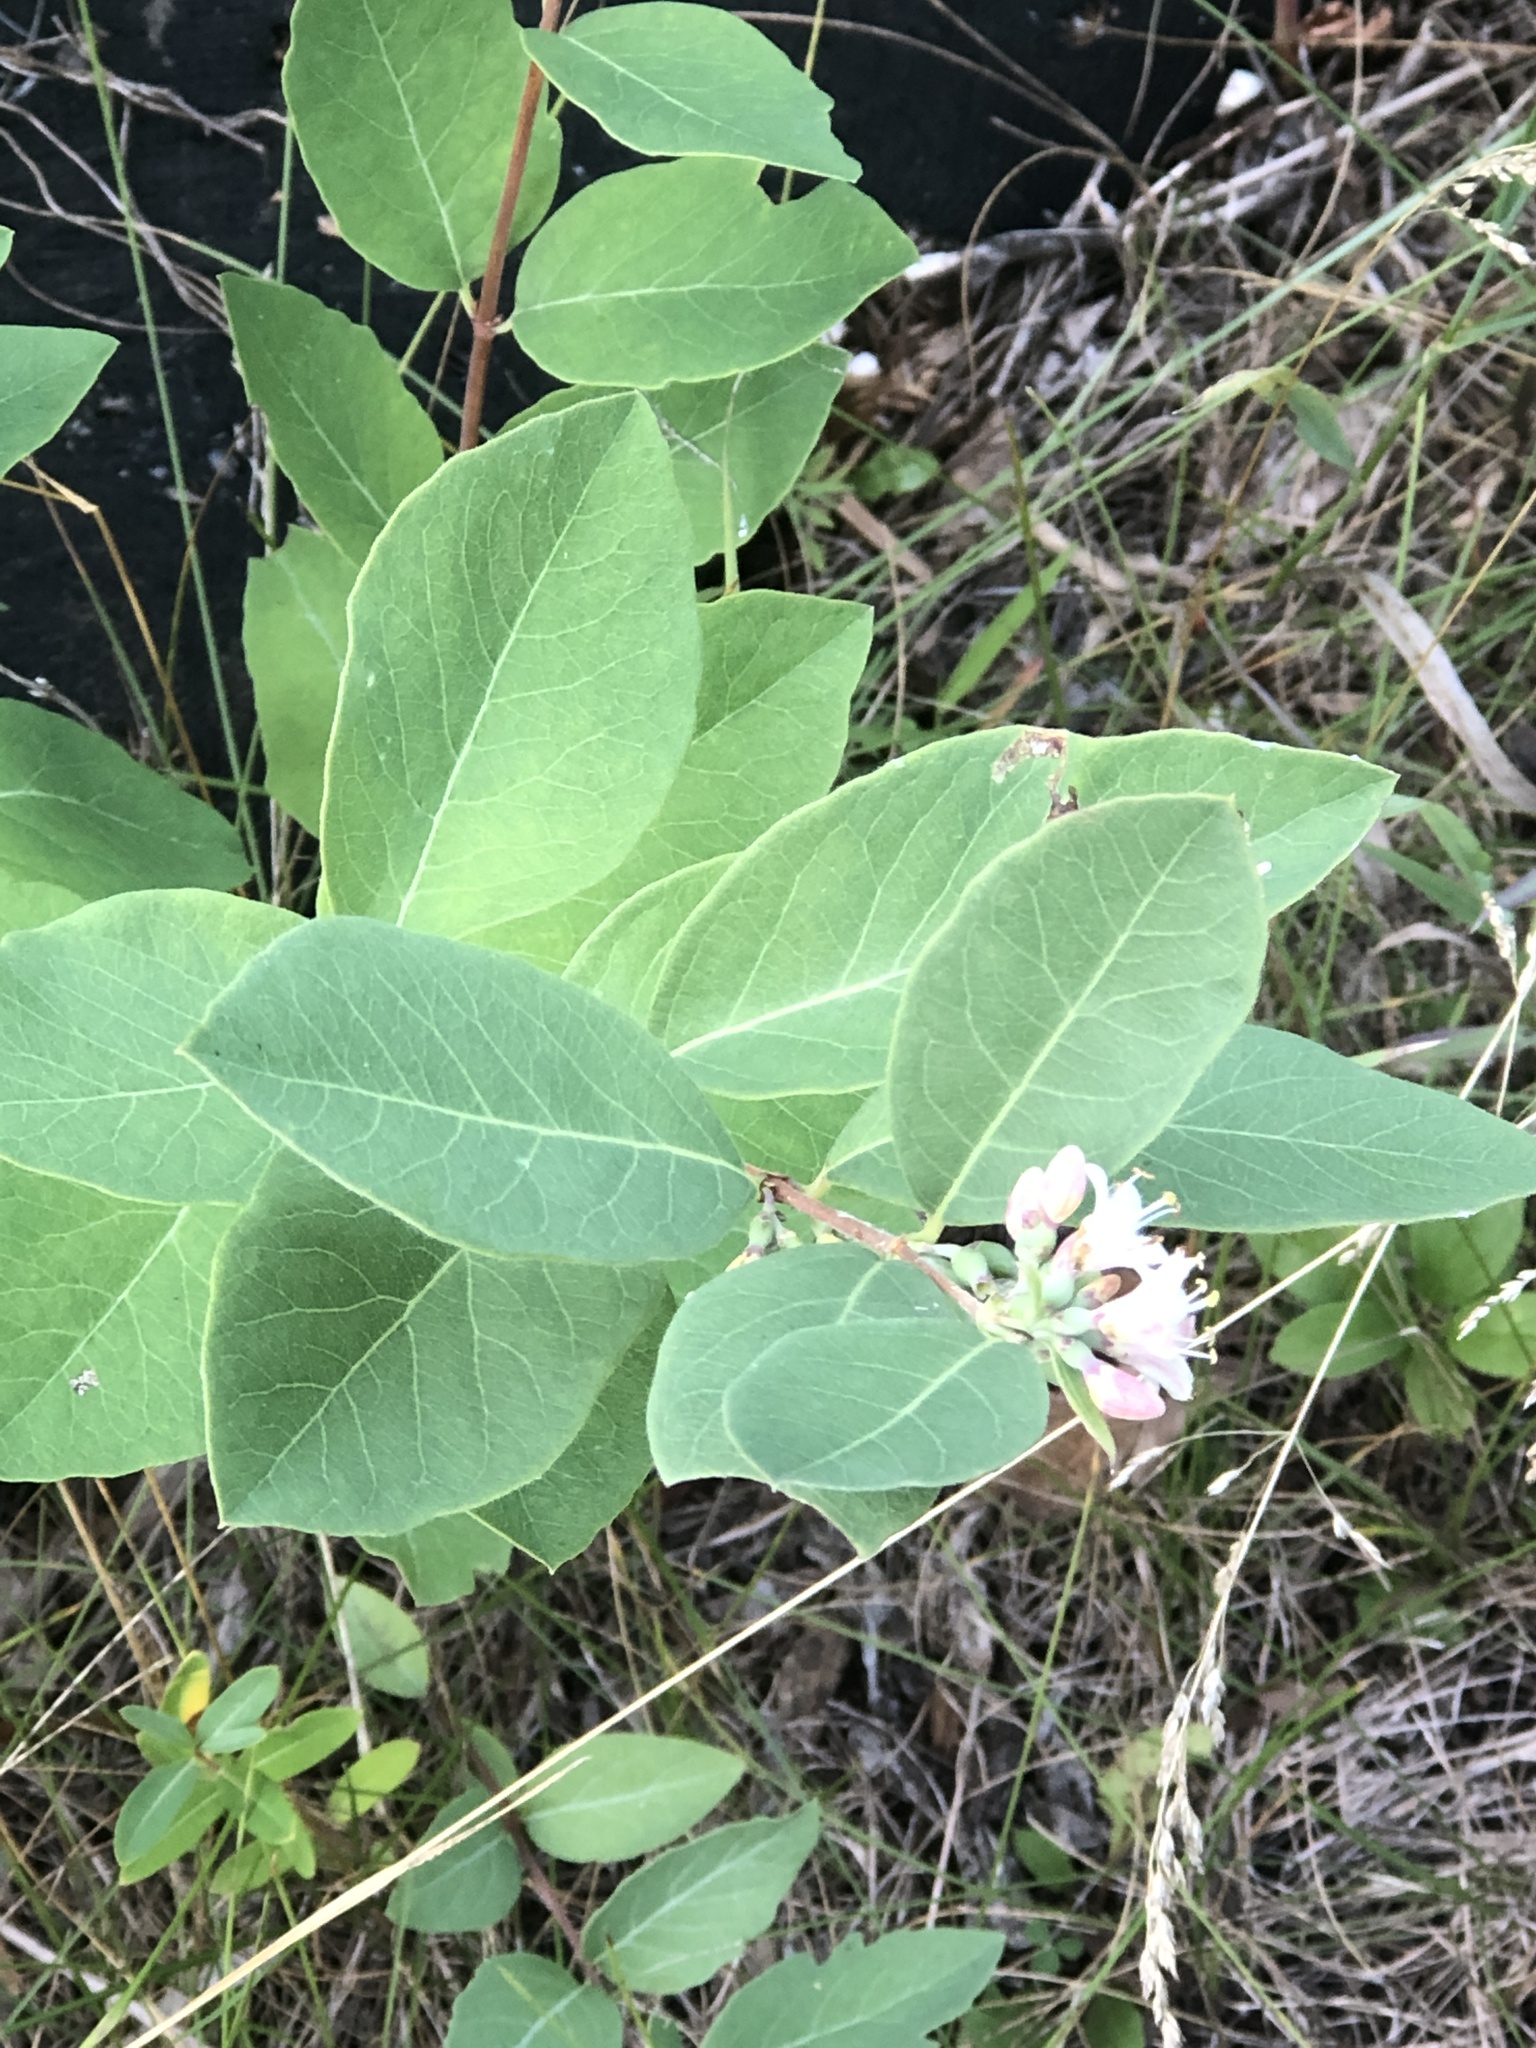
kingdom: Plantae
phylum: Tracheophyta
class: Magnoliopsida
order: Dipsacales
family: Caprifoliaceae
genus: Symphoricarpos
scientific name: Symphoricarpos occidentalis
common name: Wolfberry
